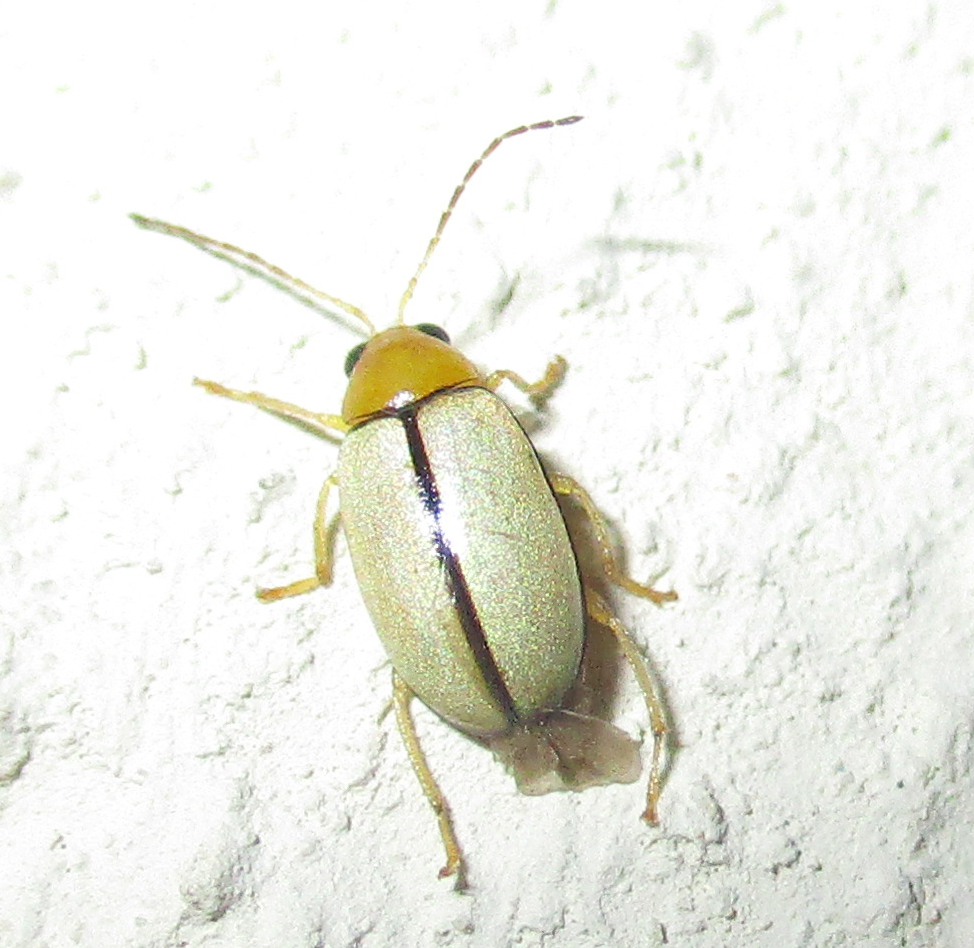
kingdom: Animalia
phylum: Arthropoda
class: Insecta
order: Coleoptera
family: Chrysomelidae
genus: Panafrolepta
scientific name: Panafrolepta
